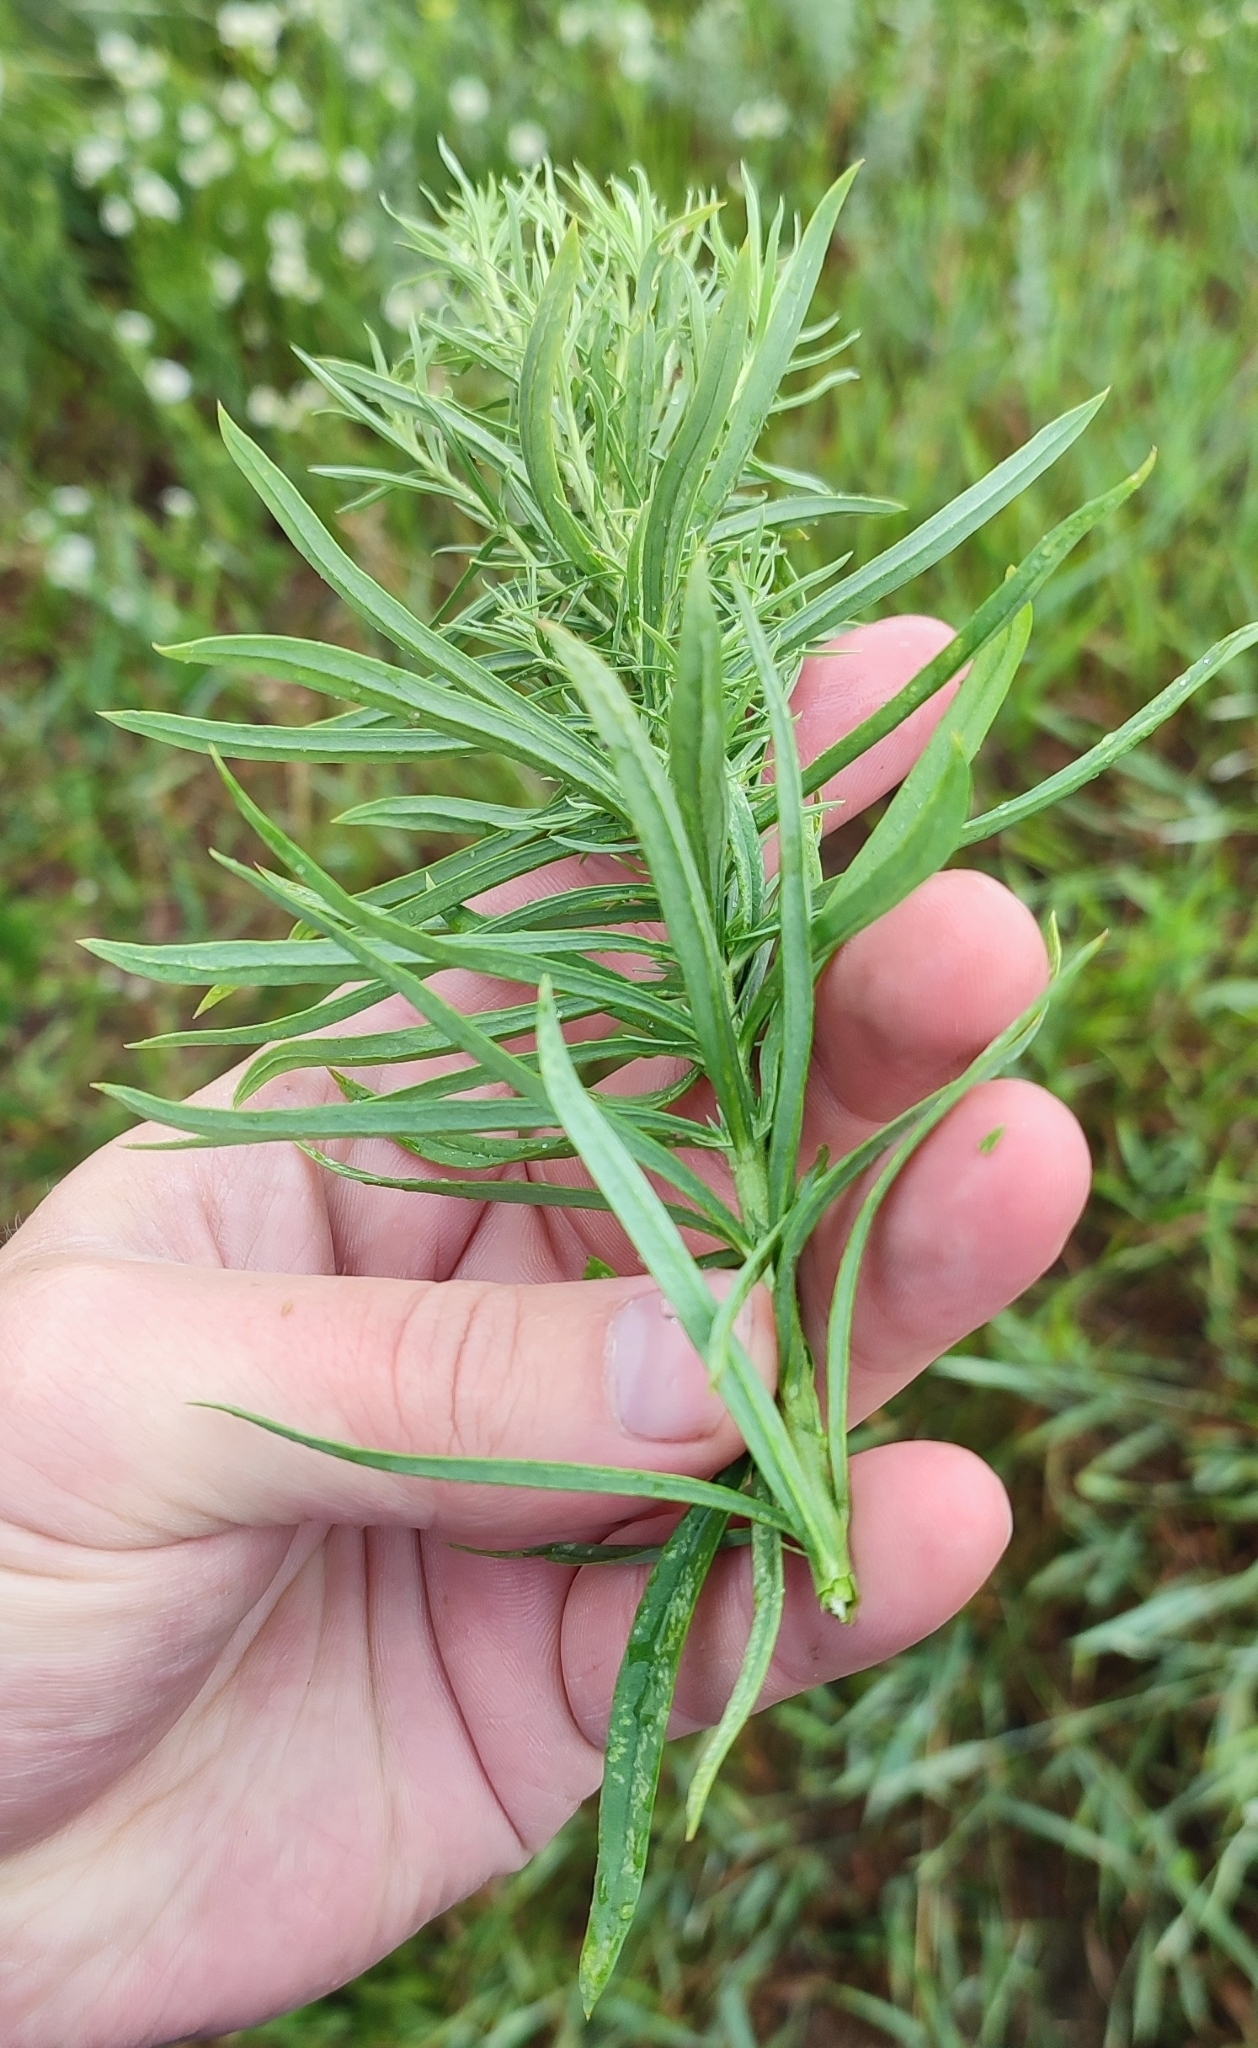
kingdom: Plantae
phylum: Tracheophyta
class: Magnoliopsida
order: Lamiales
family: Plantaginaceae
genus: Linaria
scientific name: Linaria vulgaris
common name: Butter and eggs
